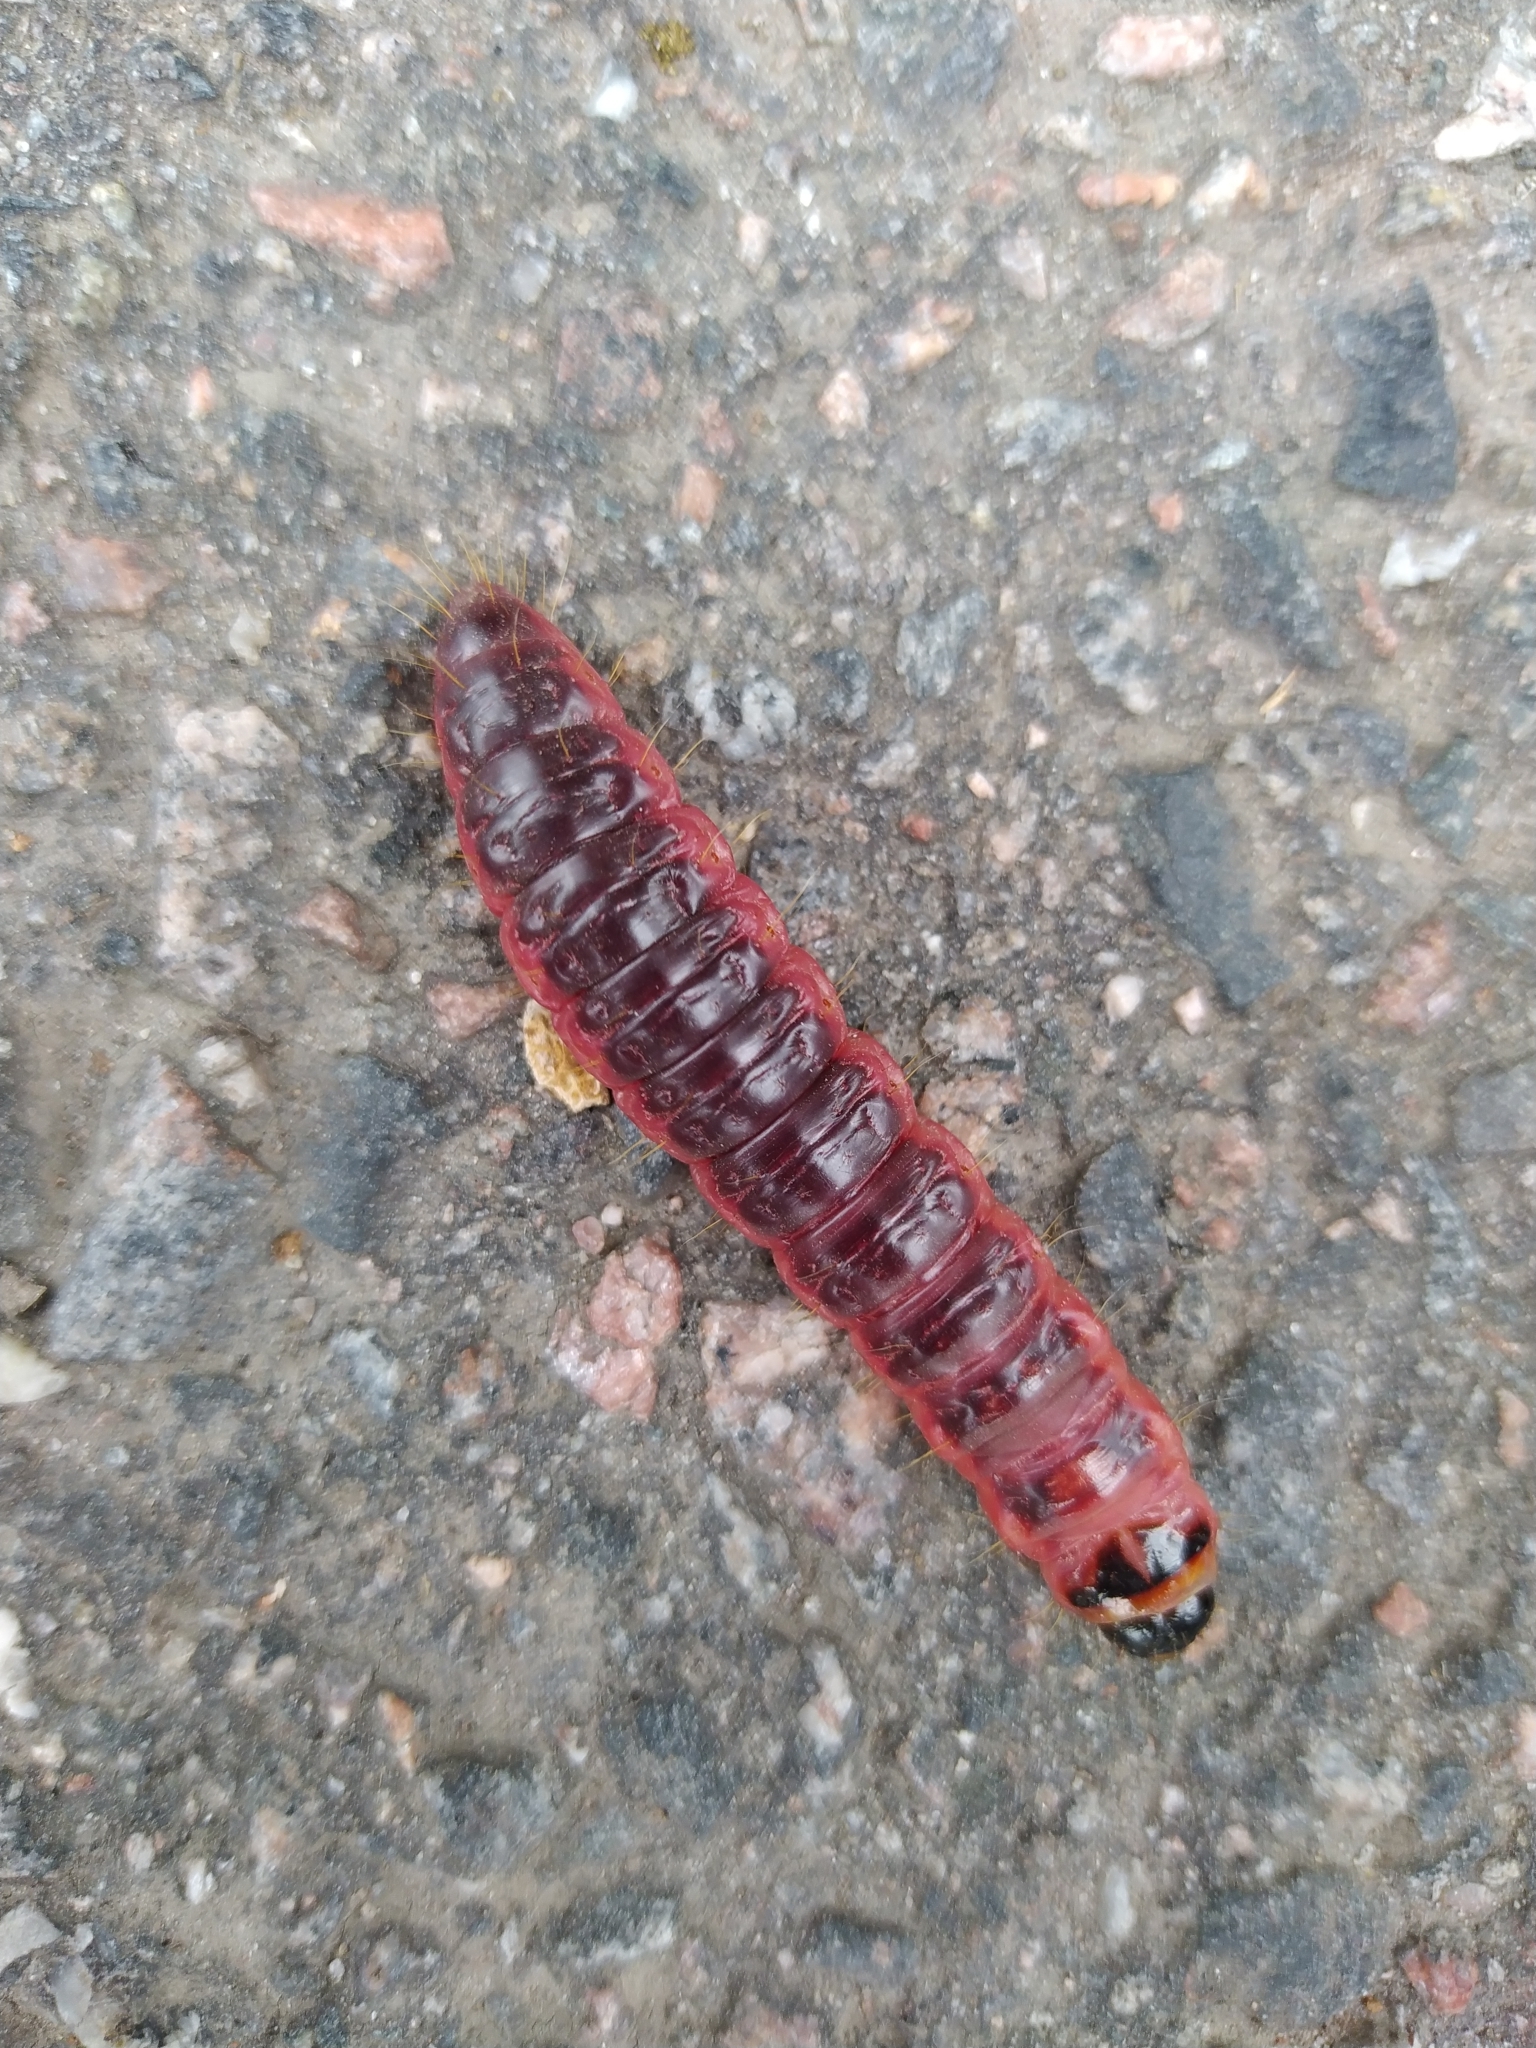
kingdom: Animalia
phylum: Arthropoda
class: Insecta
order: Lepidoptera
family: Cossidae
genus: Cossus
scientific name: Cossus cossus
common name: Goat moth
